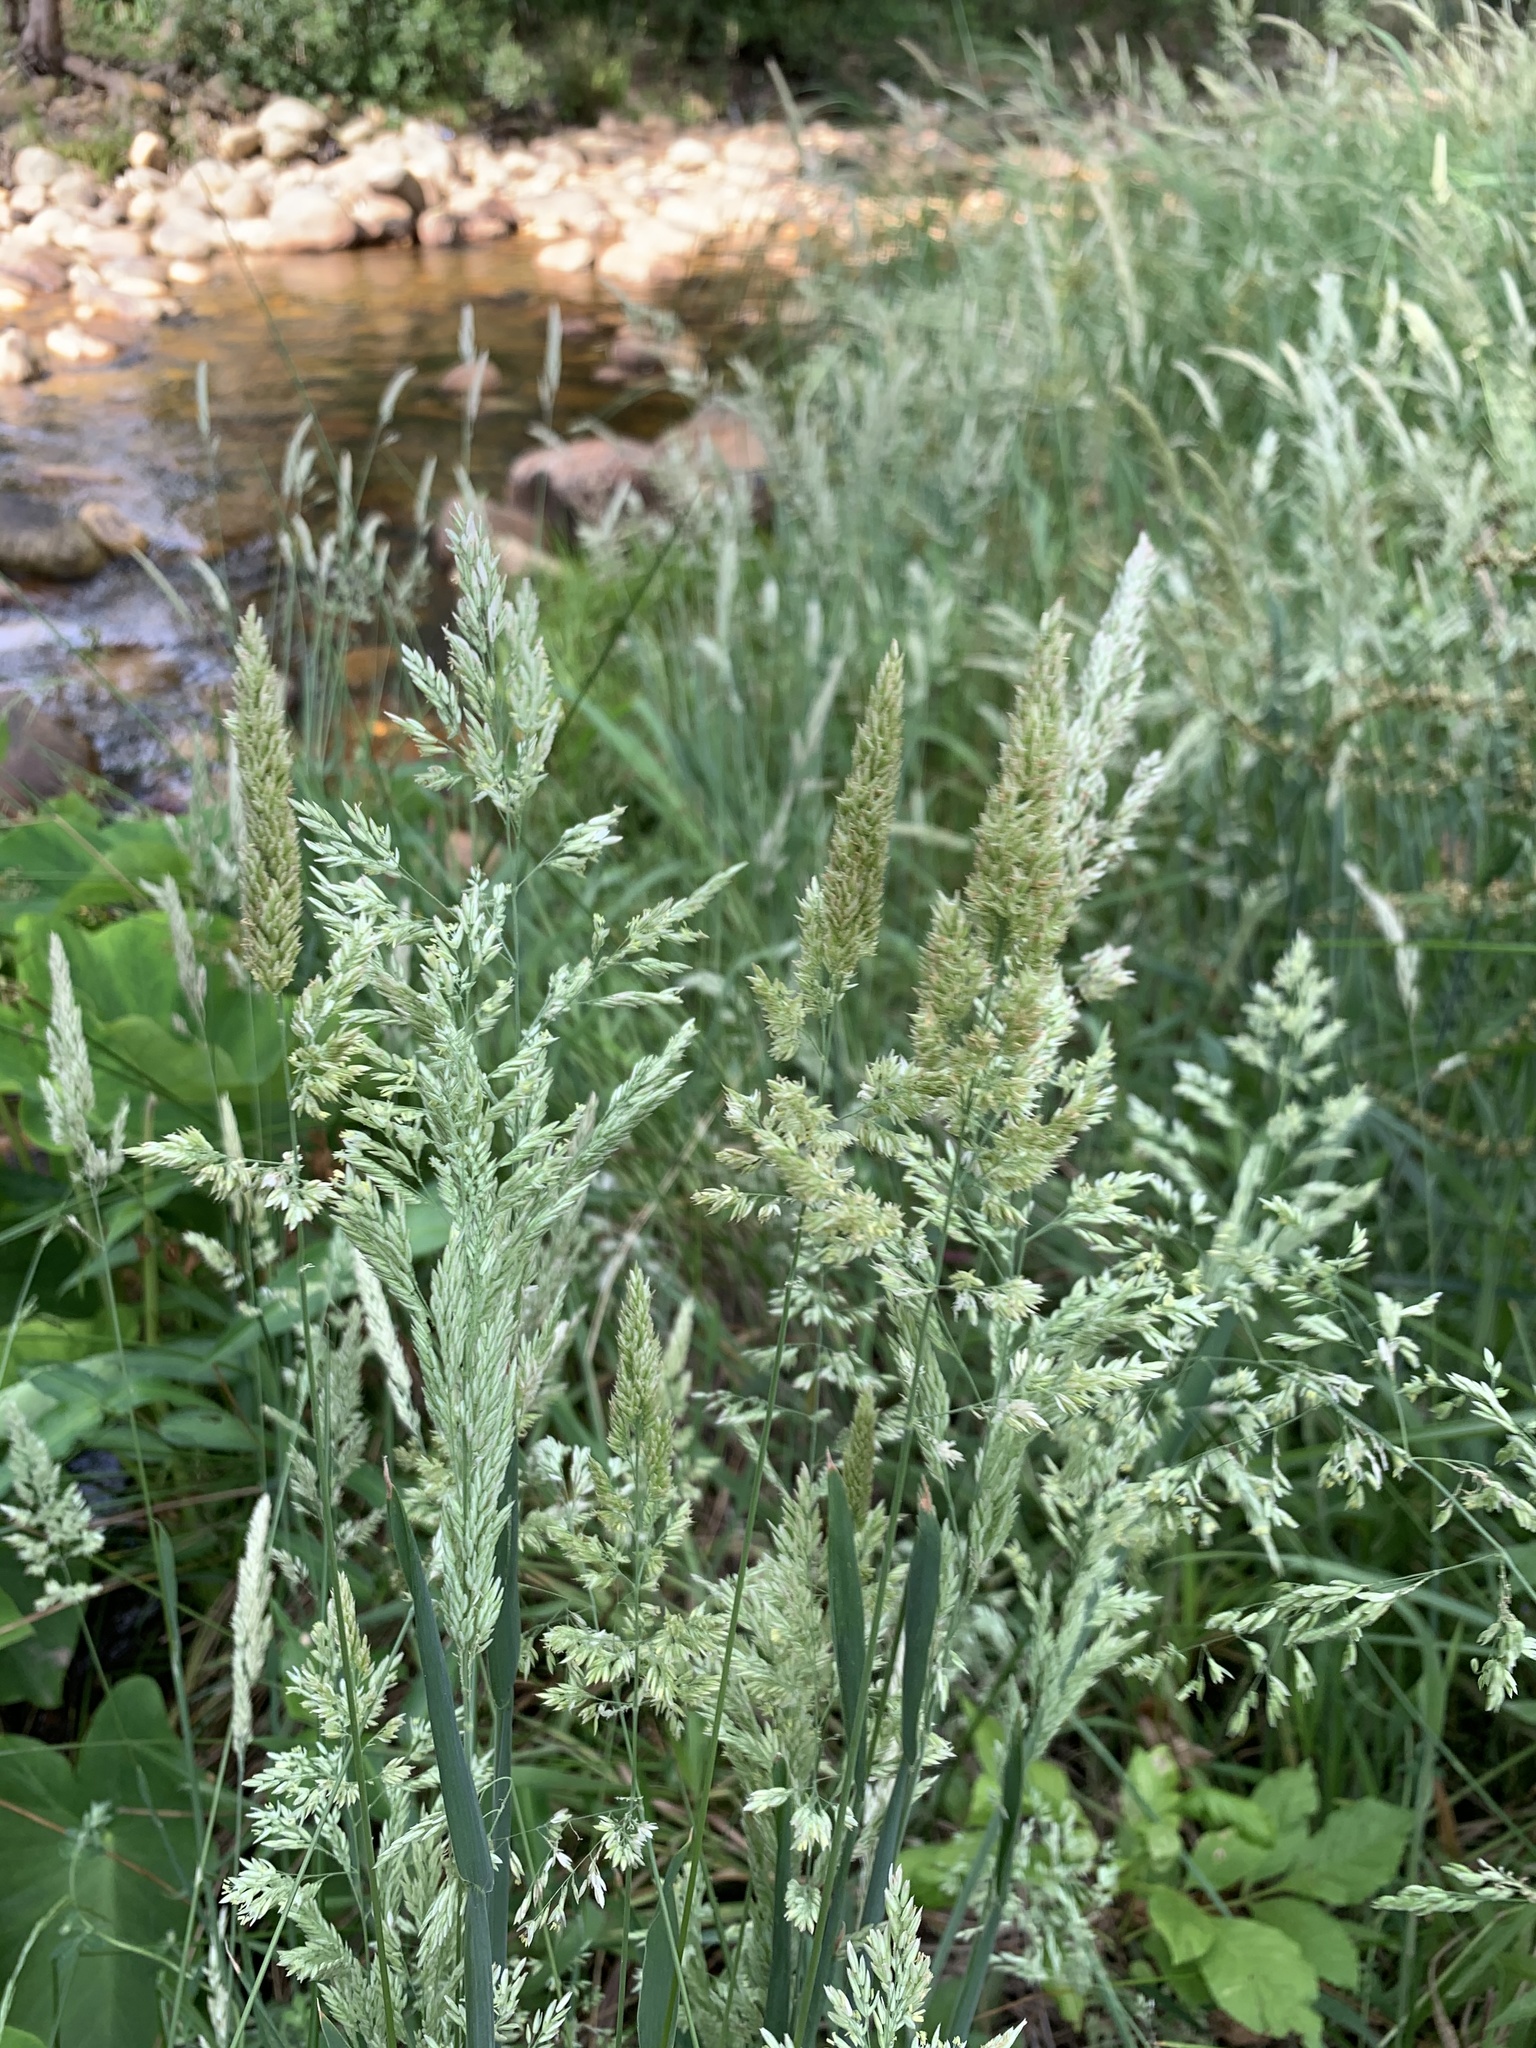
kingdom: Plantae
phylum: Tracheophyta
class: Liliopsida
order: Poales
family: Poaceae
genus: Holcus
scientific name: Holcus lanatus
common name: Yorkshire-fog
